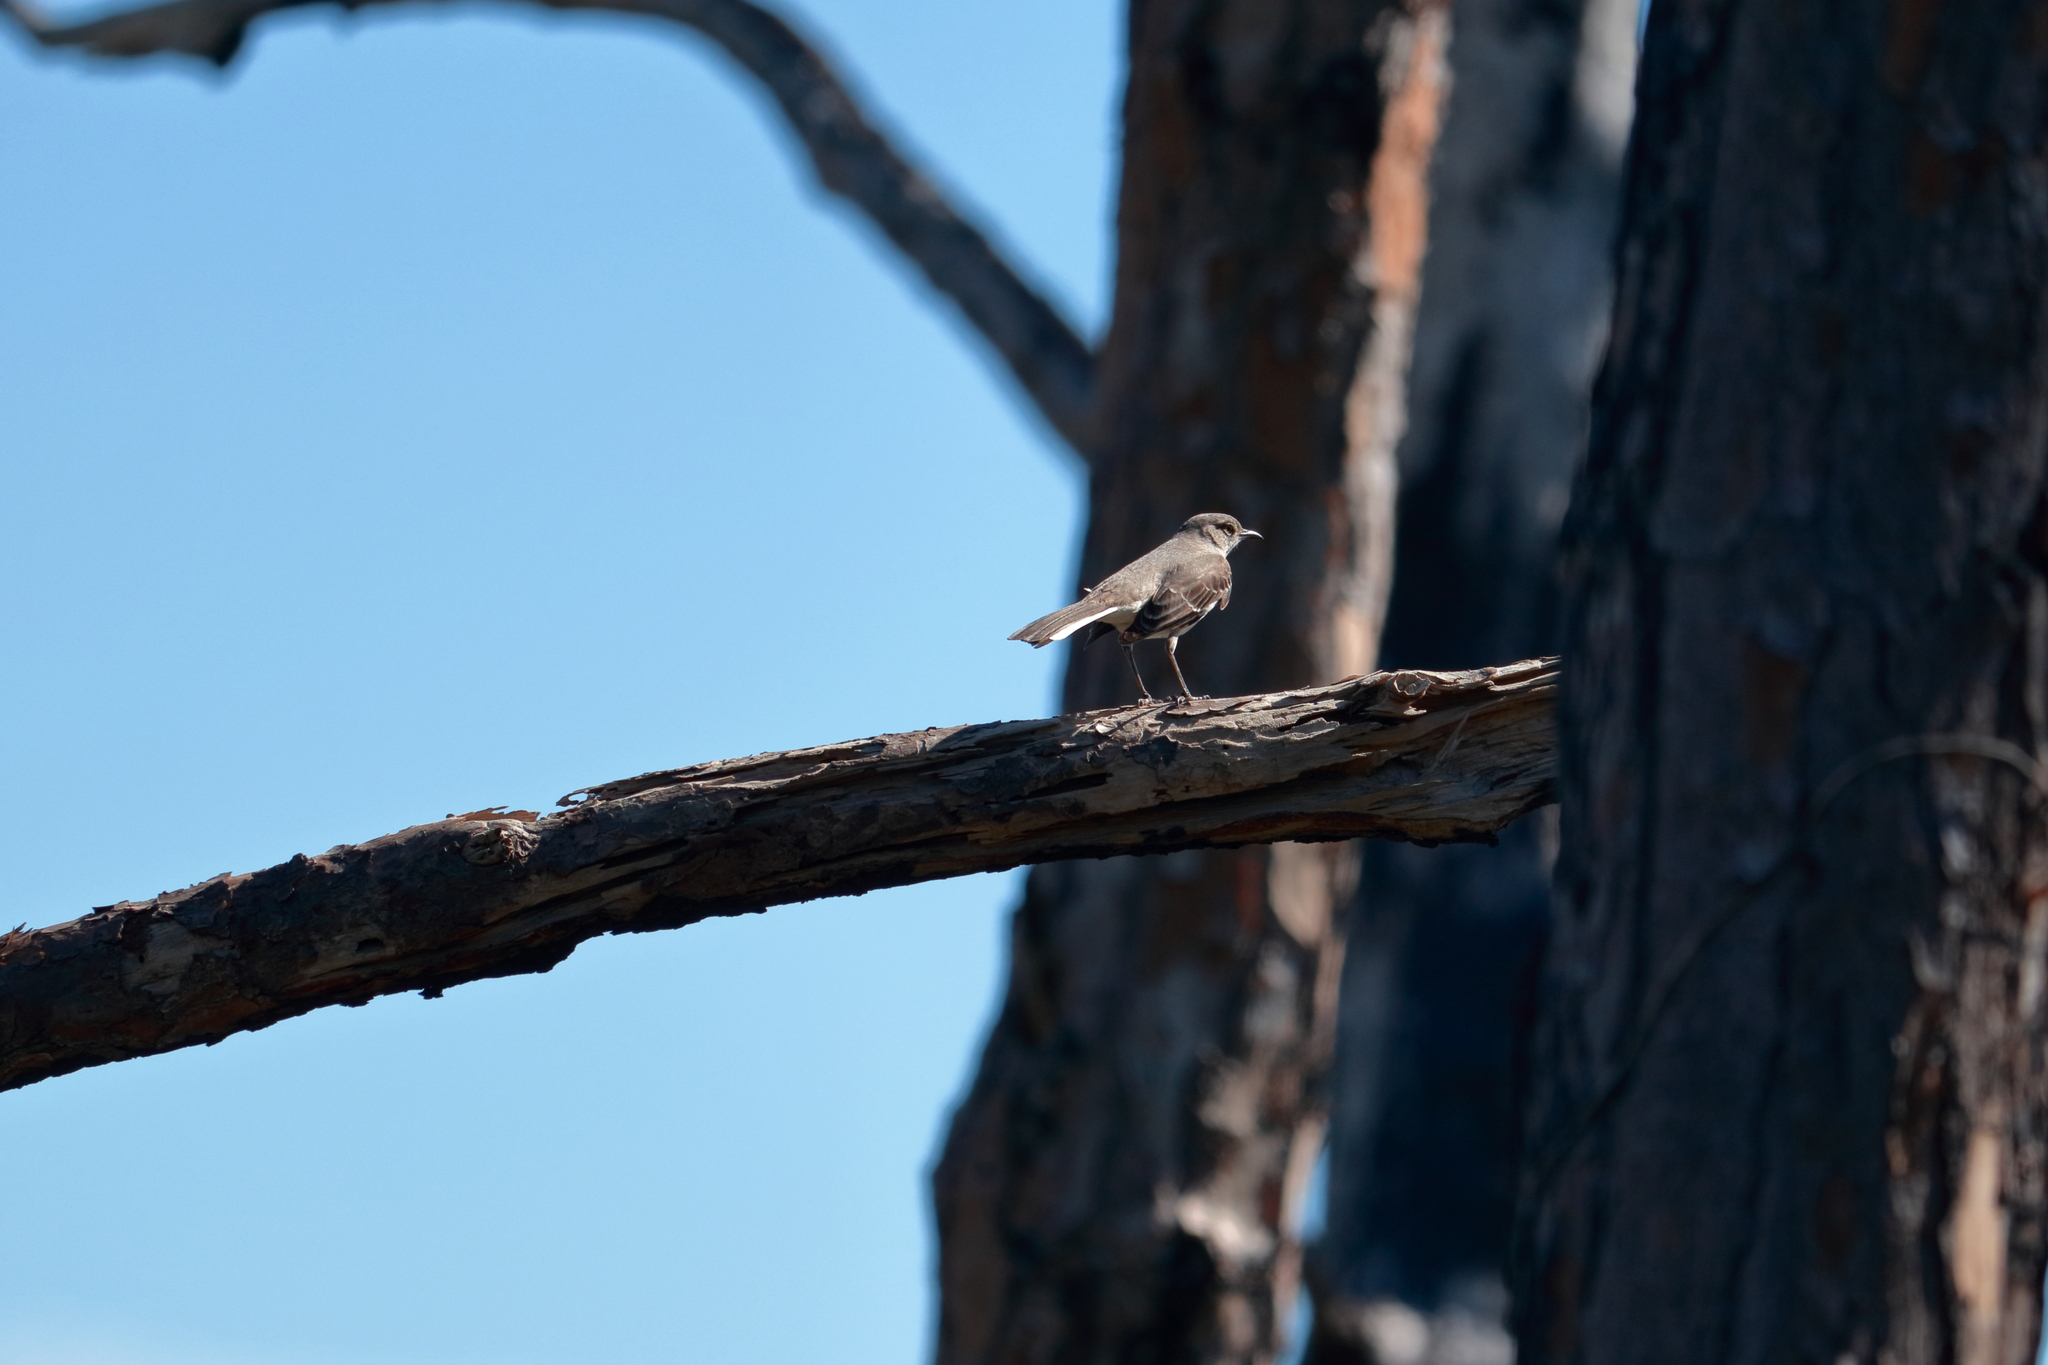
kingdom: Animalia
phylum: Chordata
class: Aves
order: Passeriformes
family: Mimidae
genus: Mimus
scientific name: Mimus polyglottos
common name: Northern mockingbird
